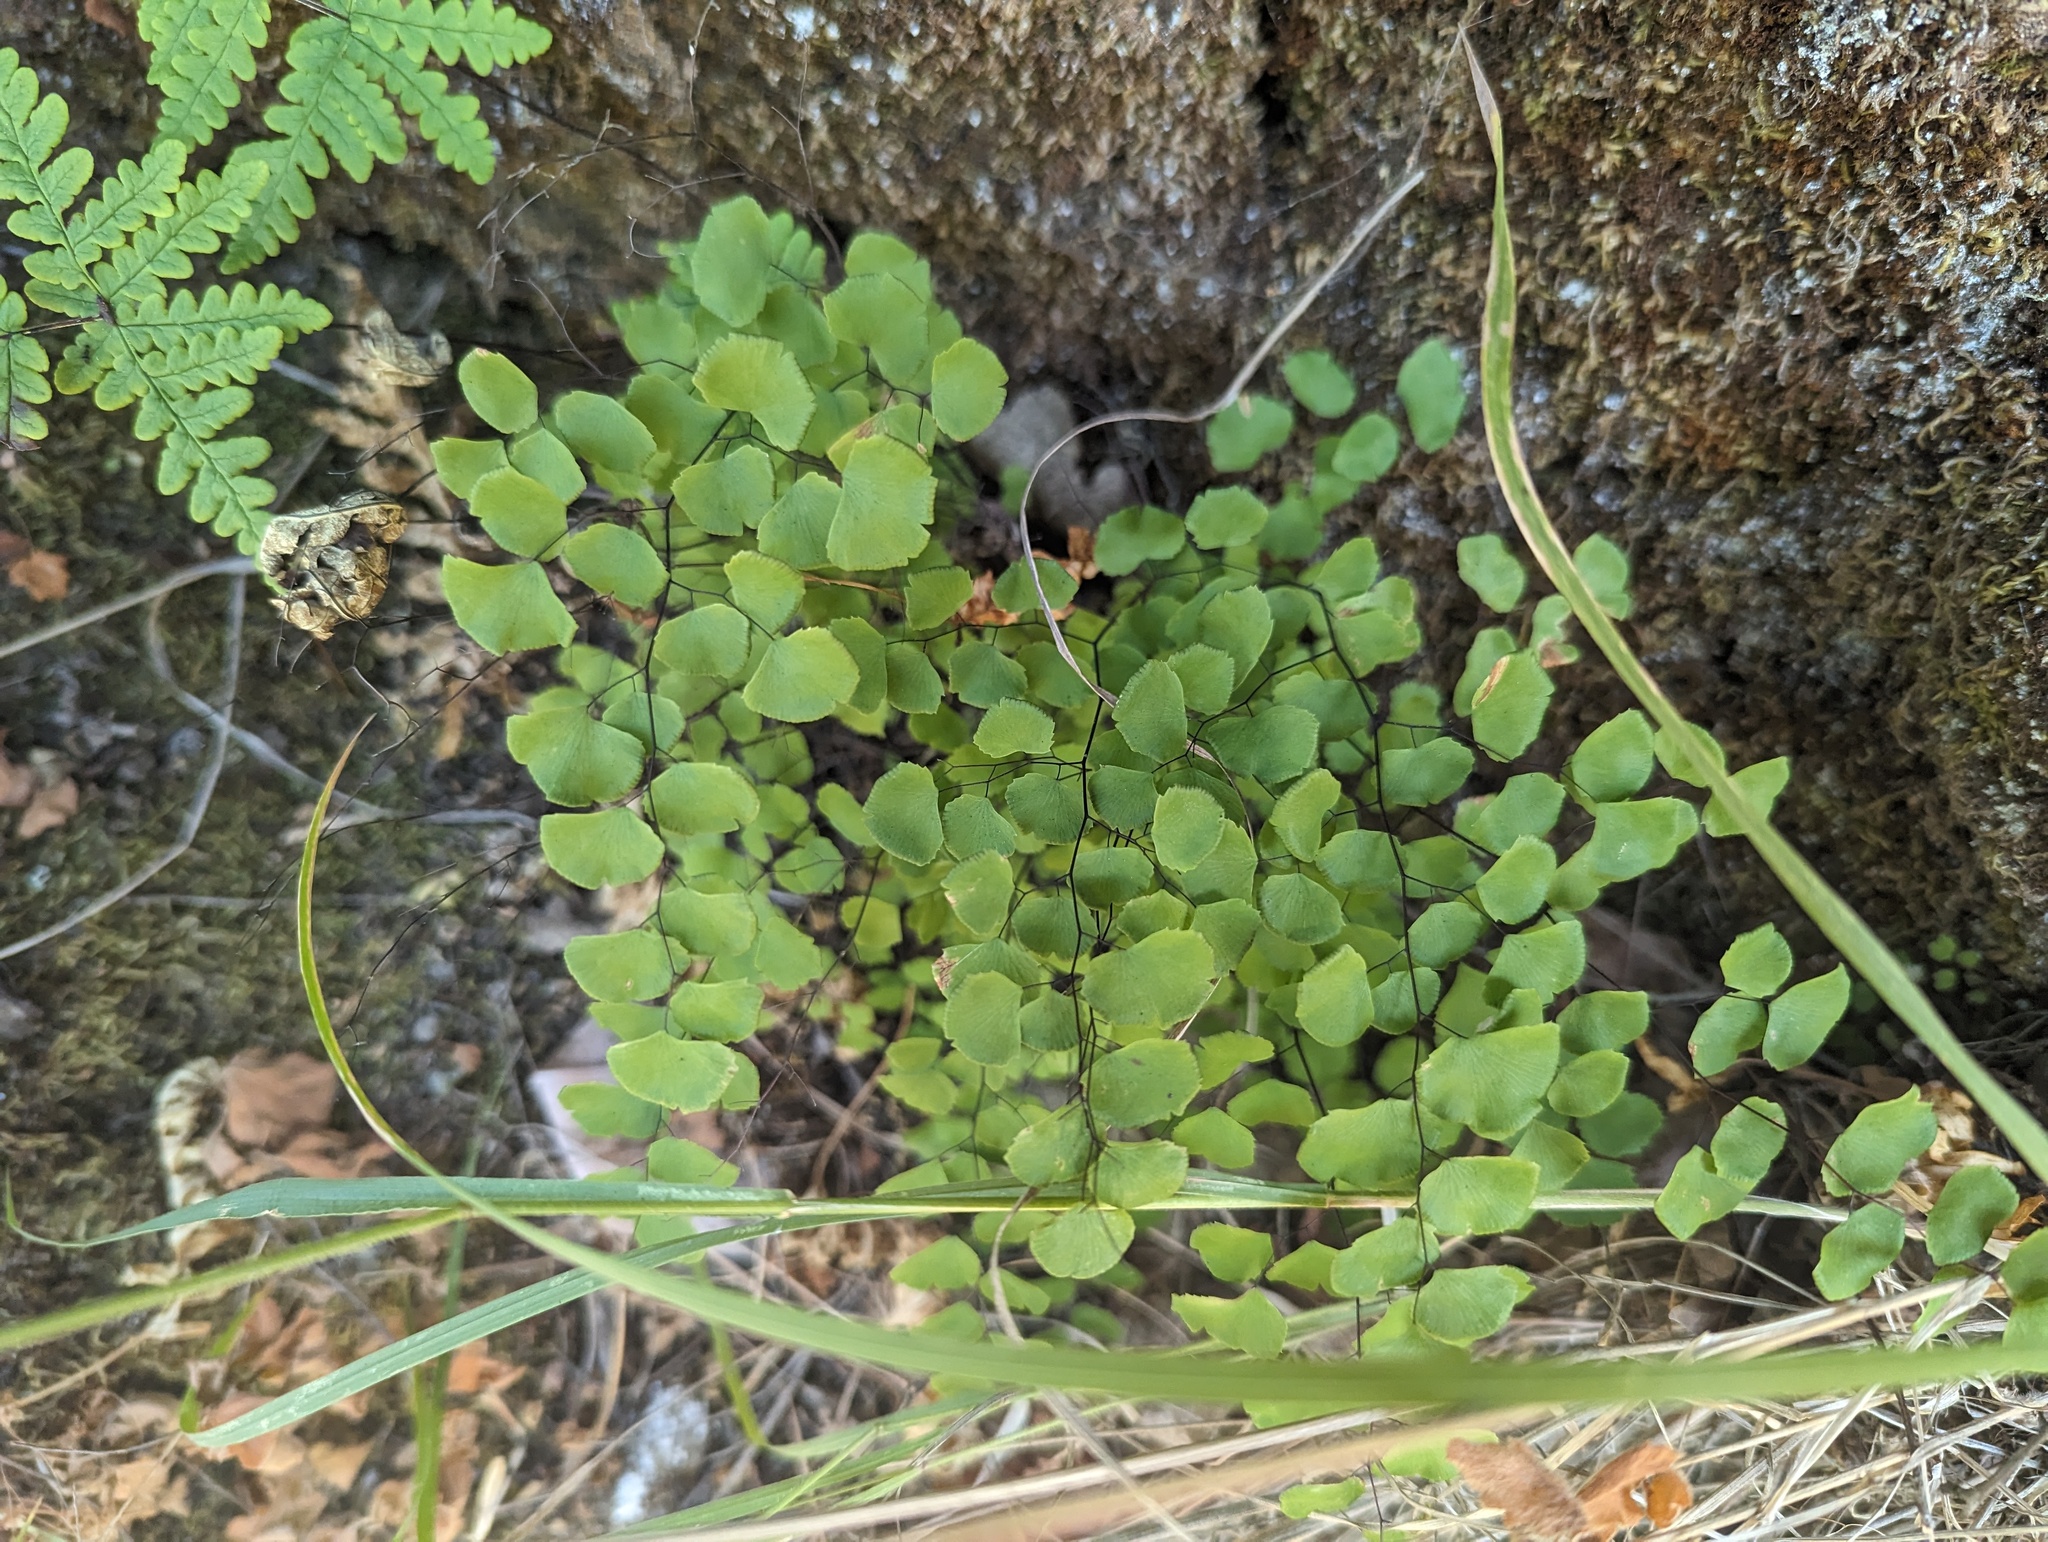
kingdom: Plantae
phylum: Tracheophyta
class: Polypodiopsida
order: Polypodiales
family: Pteridaceae
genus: Adiantum
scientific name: Adiantum jordanii
